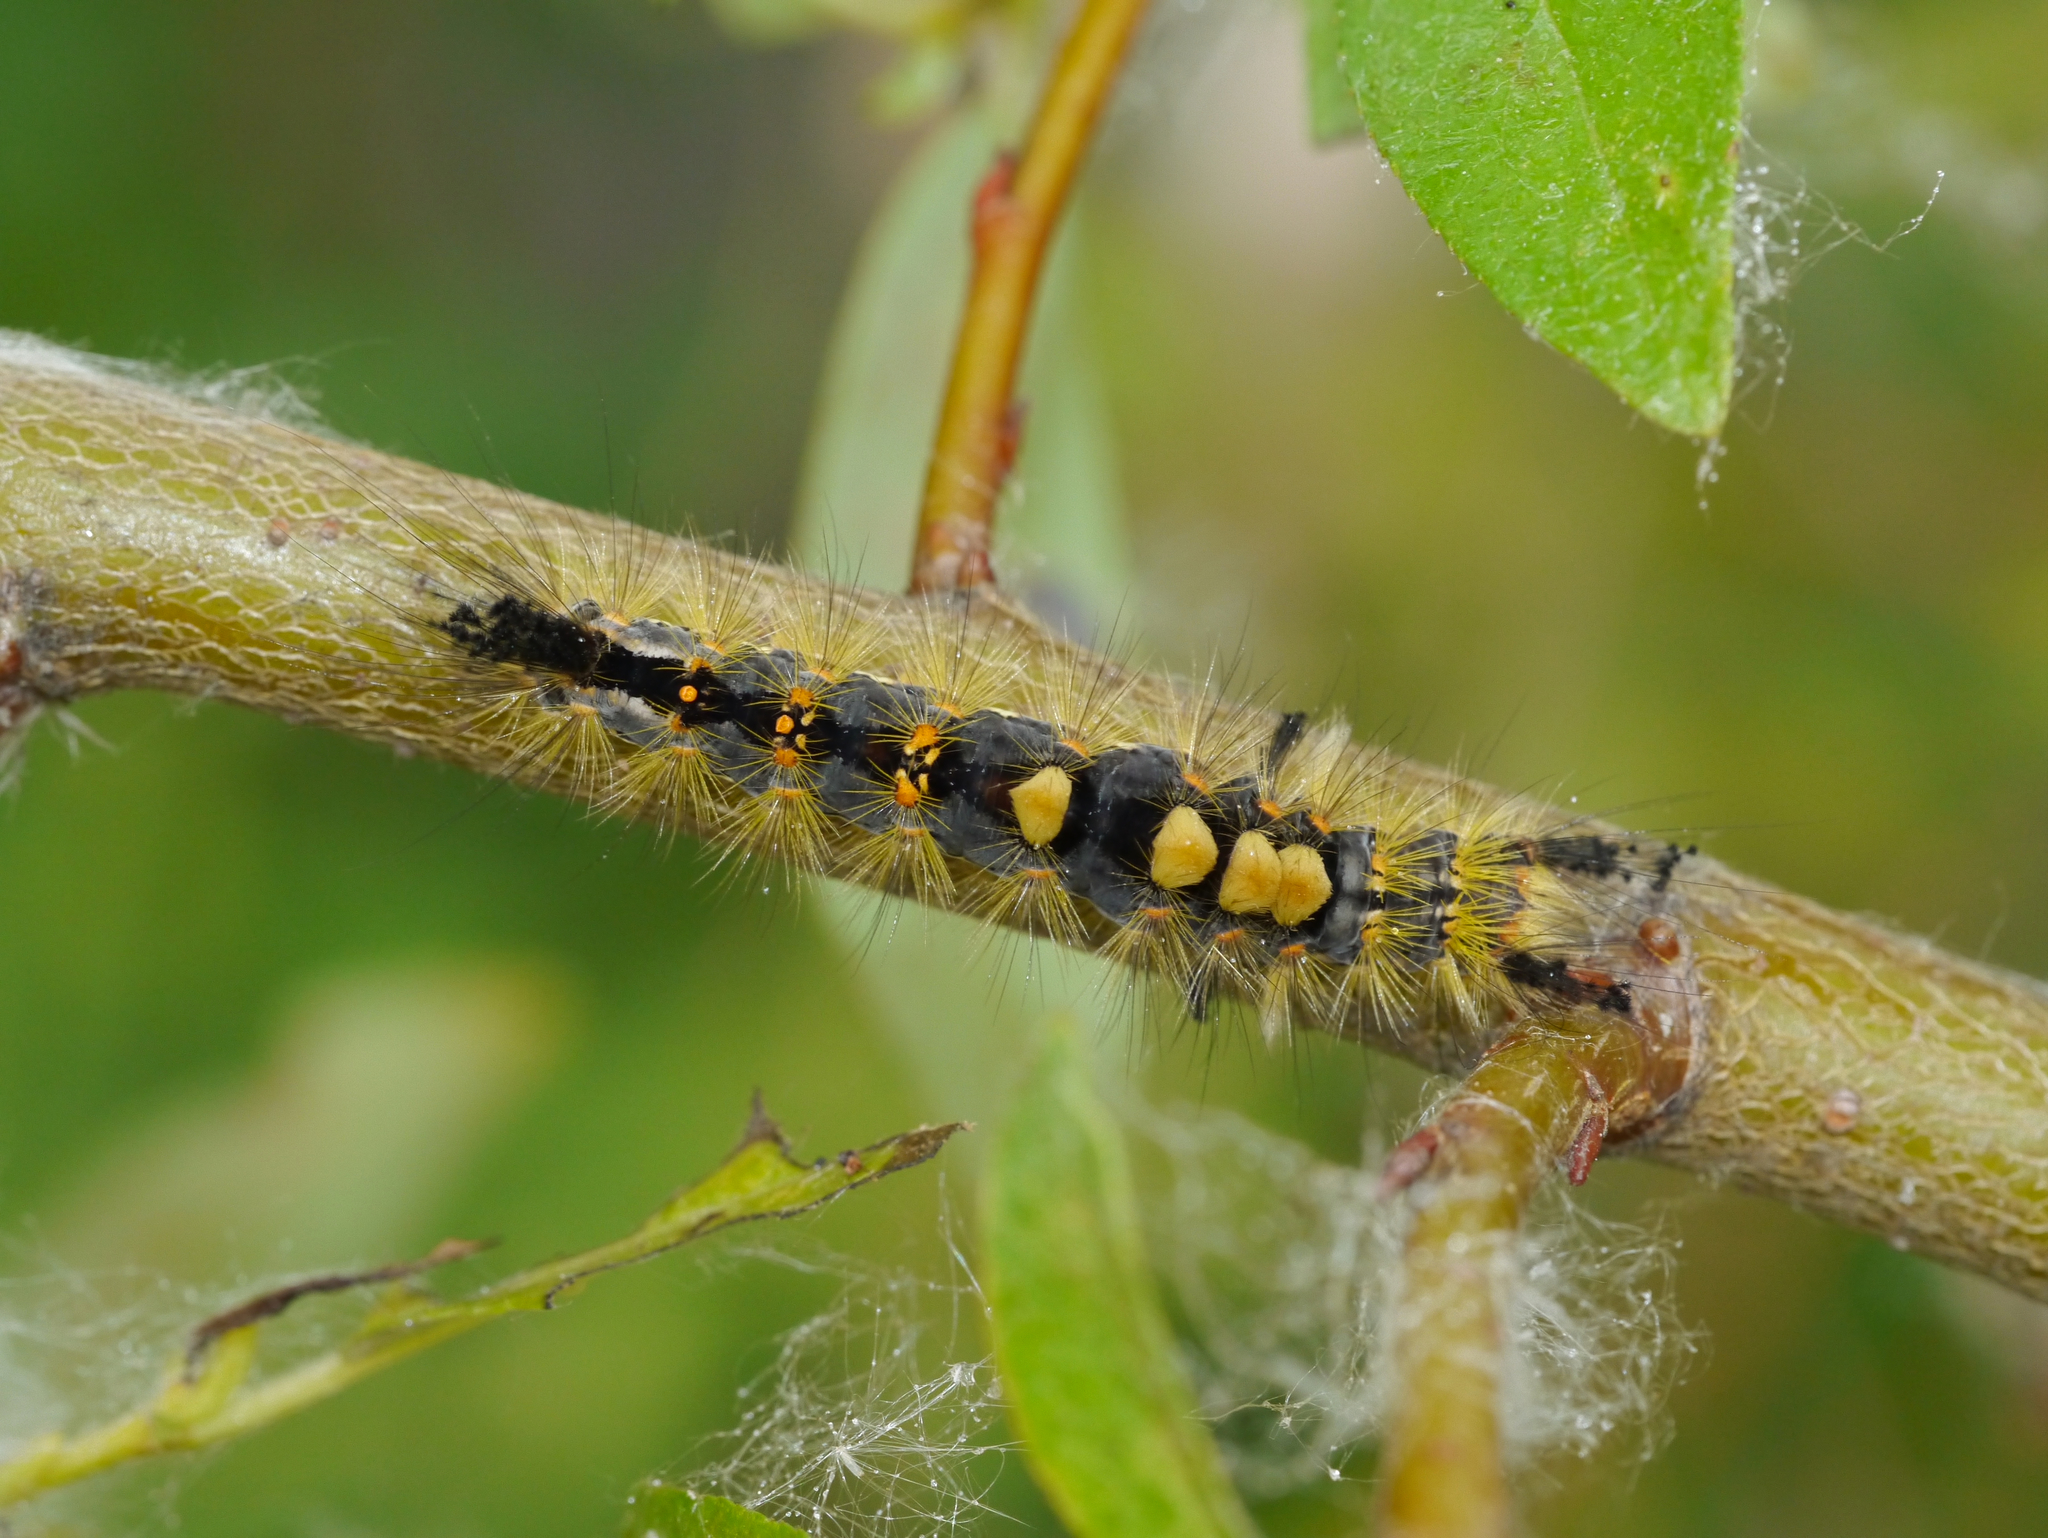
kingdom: Animalia
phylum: Arthropoda
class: Insecta
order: Lepidoptera
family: Erebidae
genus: Orgyia
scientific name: Orgyia antiqua
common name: Vapourer
